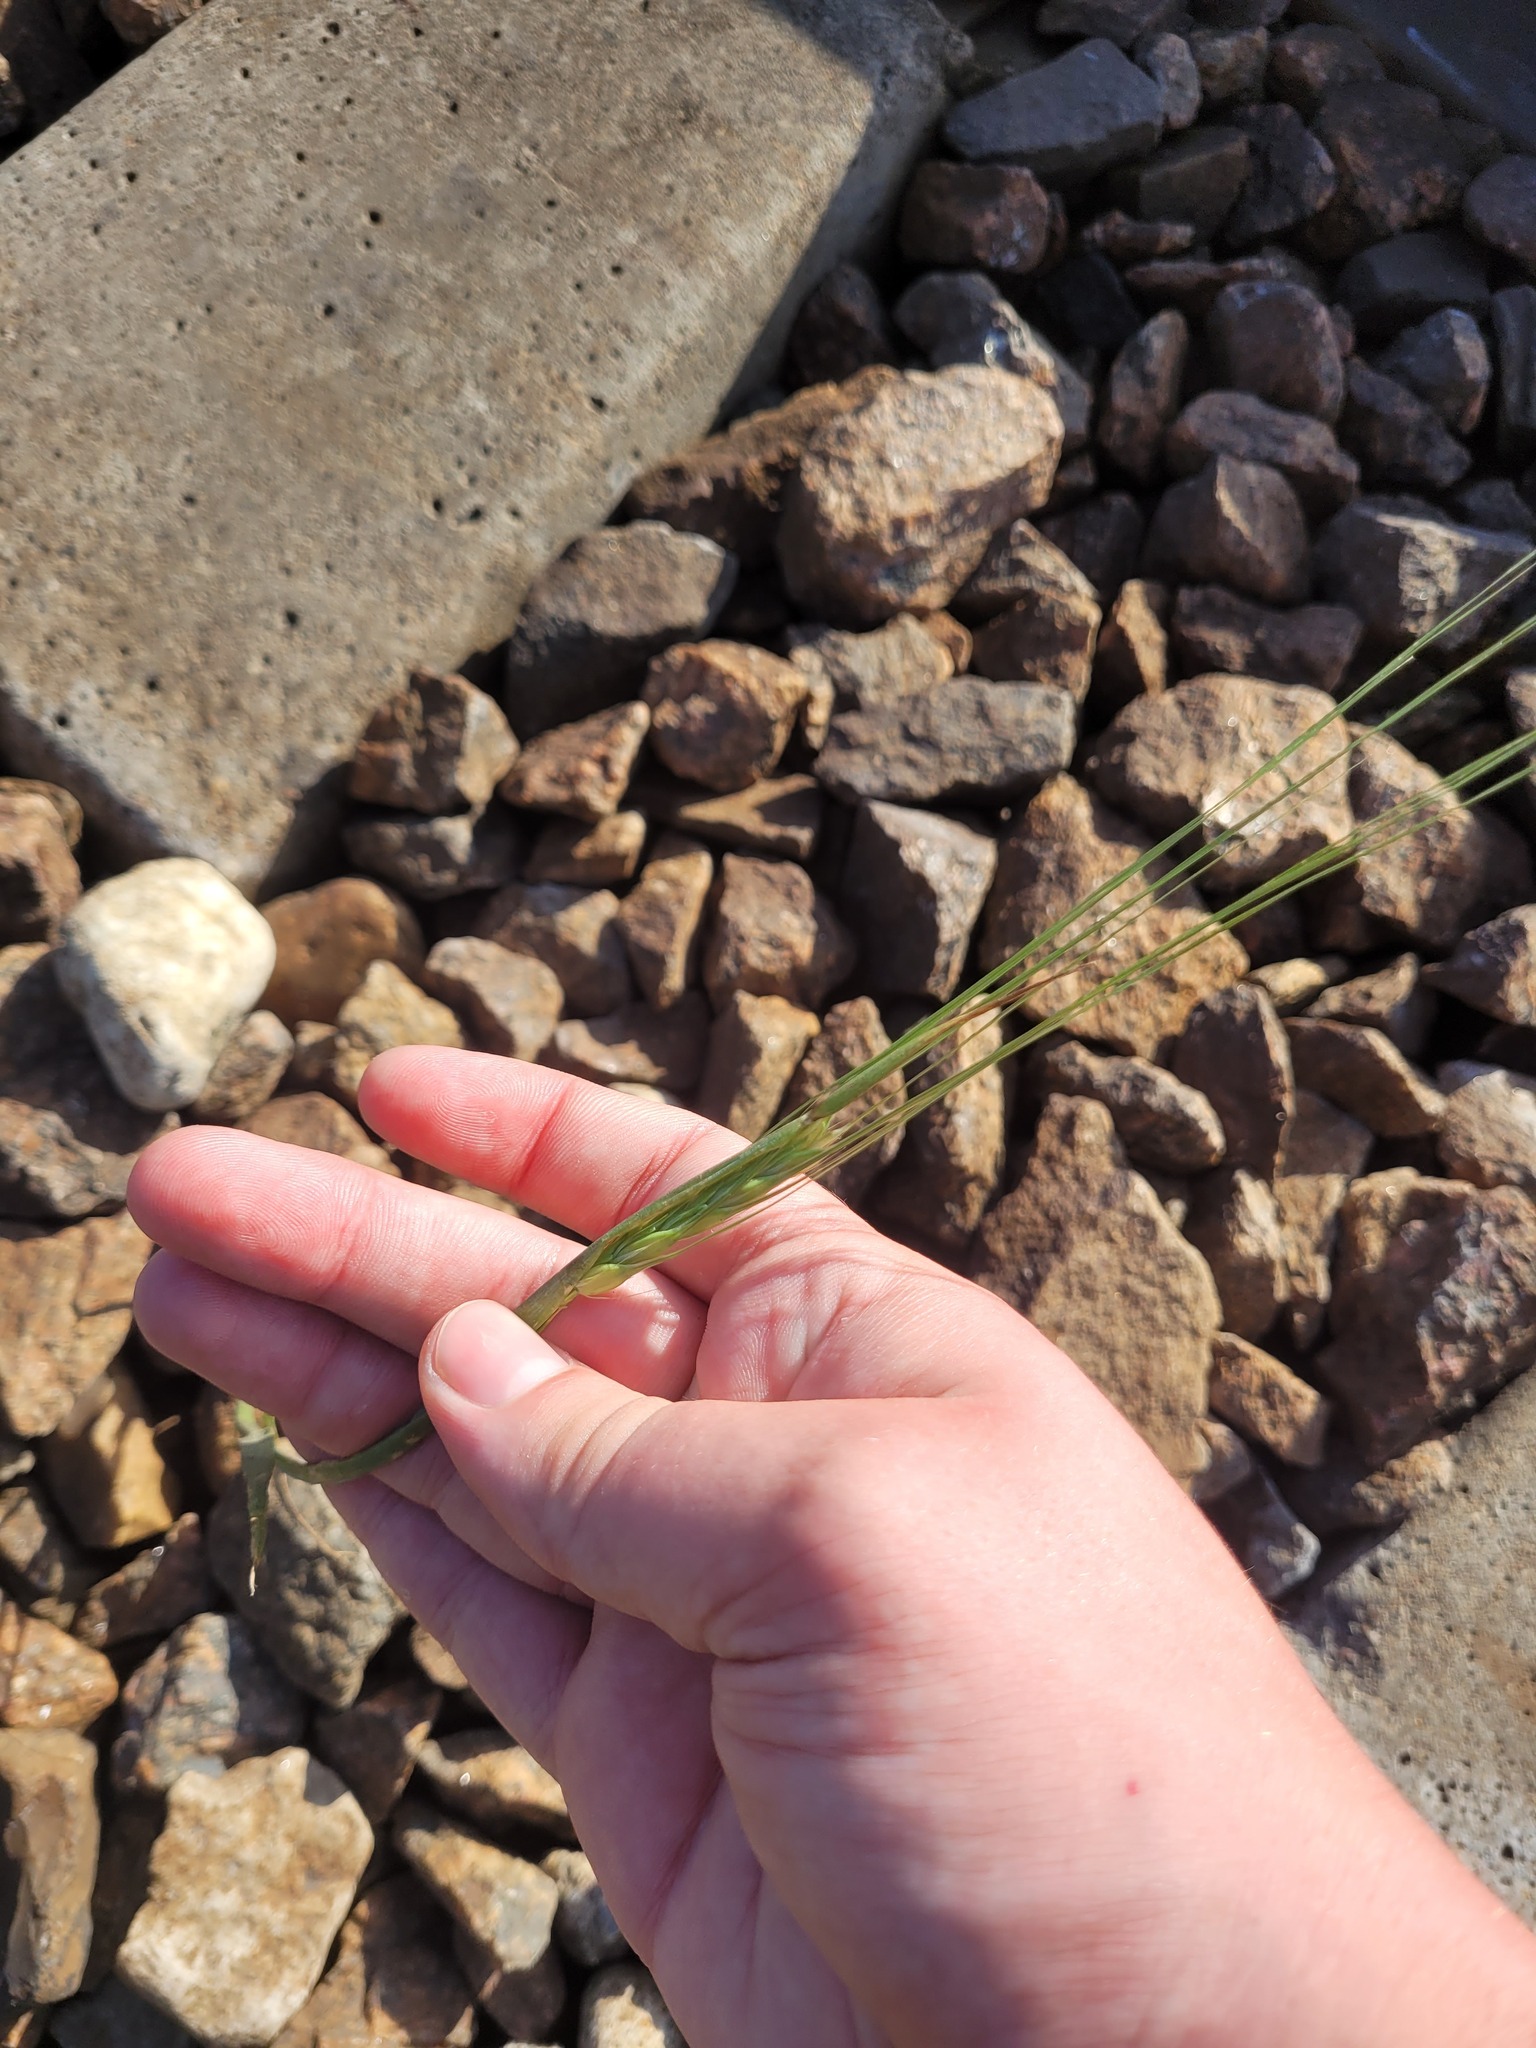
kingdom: Plantae
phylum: Tracheophyta
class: Liliopsida
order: Poales
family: Poaceae
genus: Hordeum
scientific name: Hordeum vulgare
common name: Common barley
